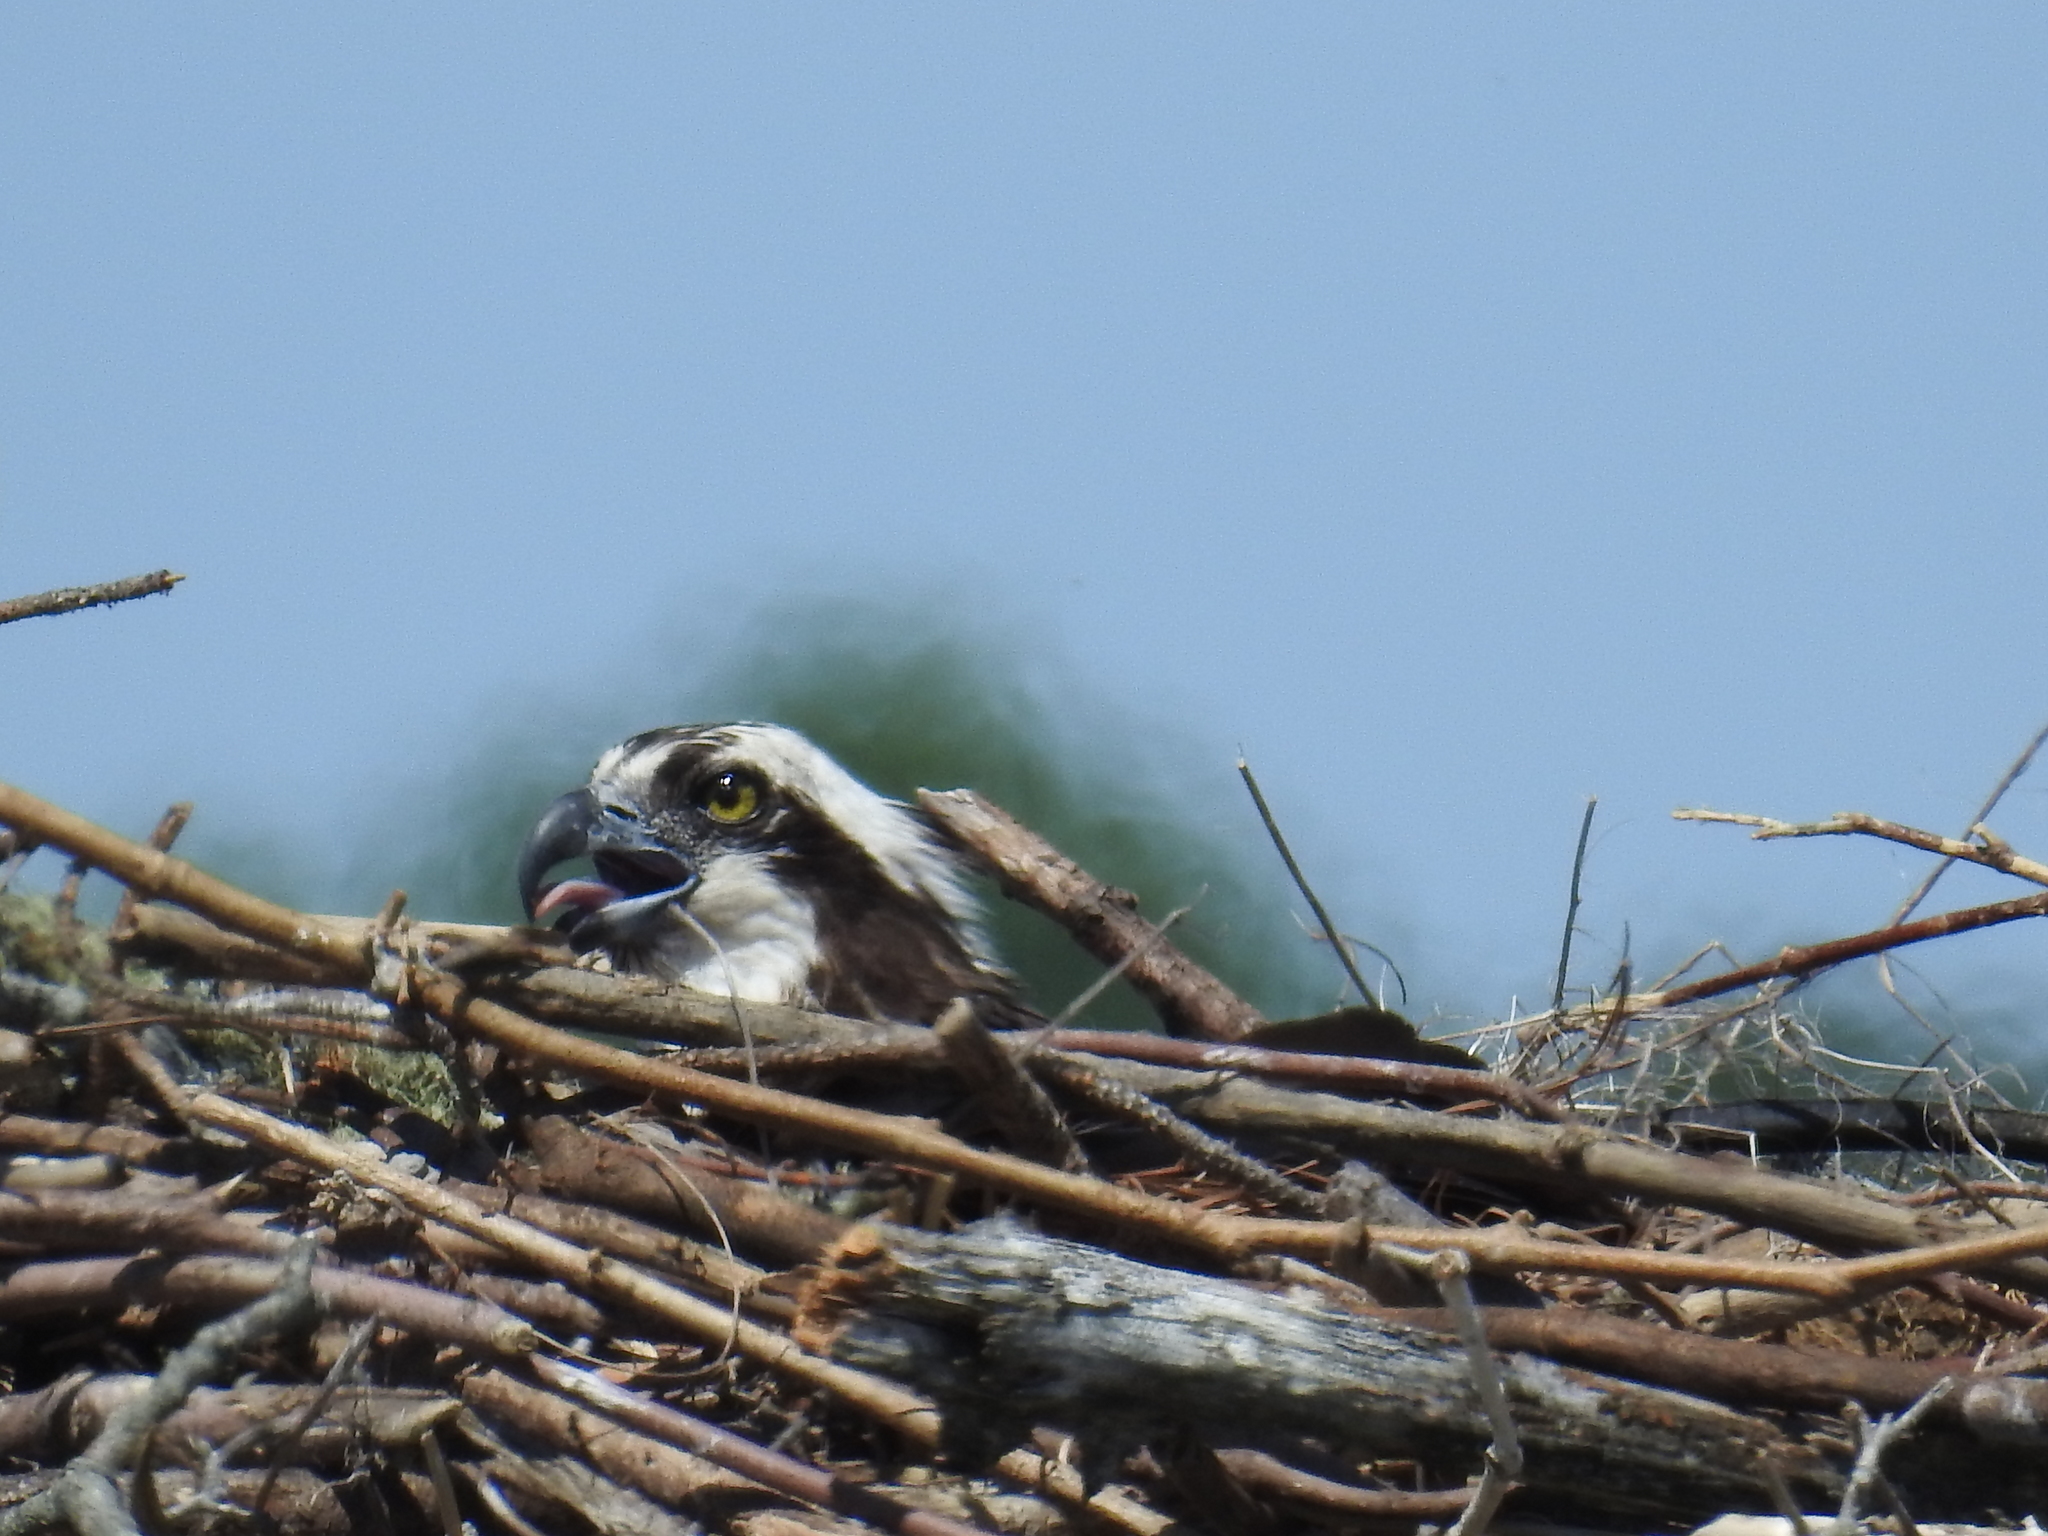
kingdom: Animalia
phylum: Chordata
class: Aves
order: Accipitriformes
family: Pandionidae
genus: Pandion
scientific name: Pandion haliaetus
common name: Osprey
